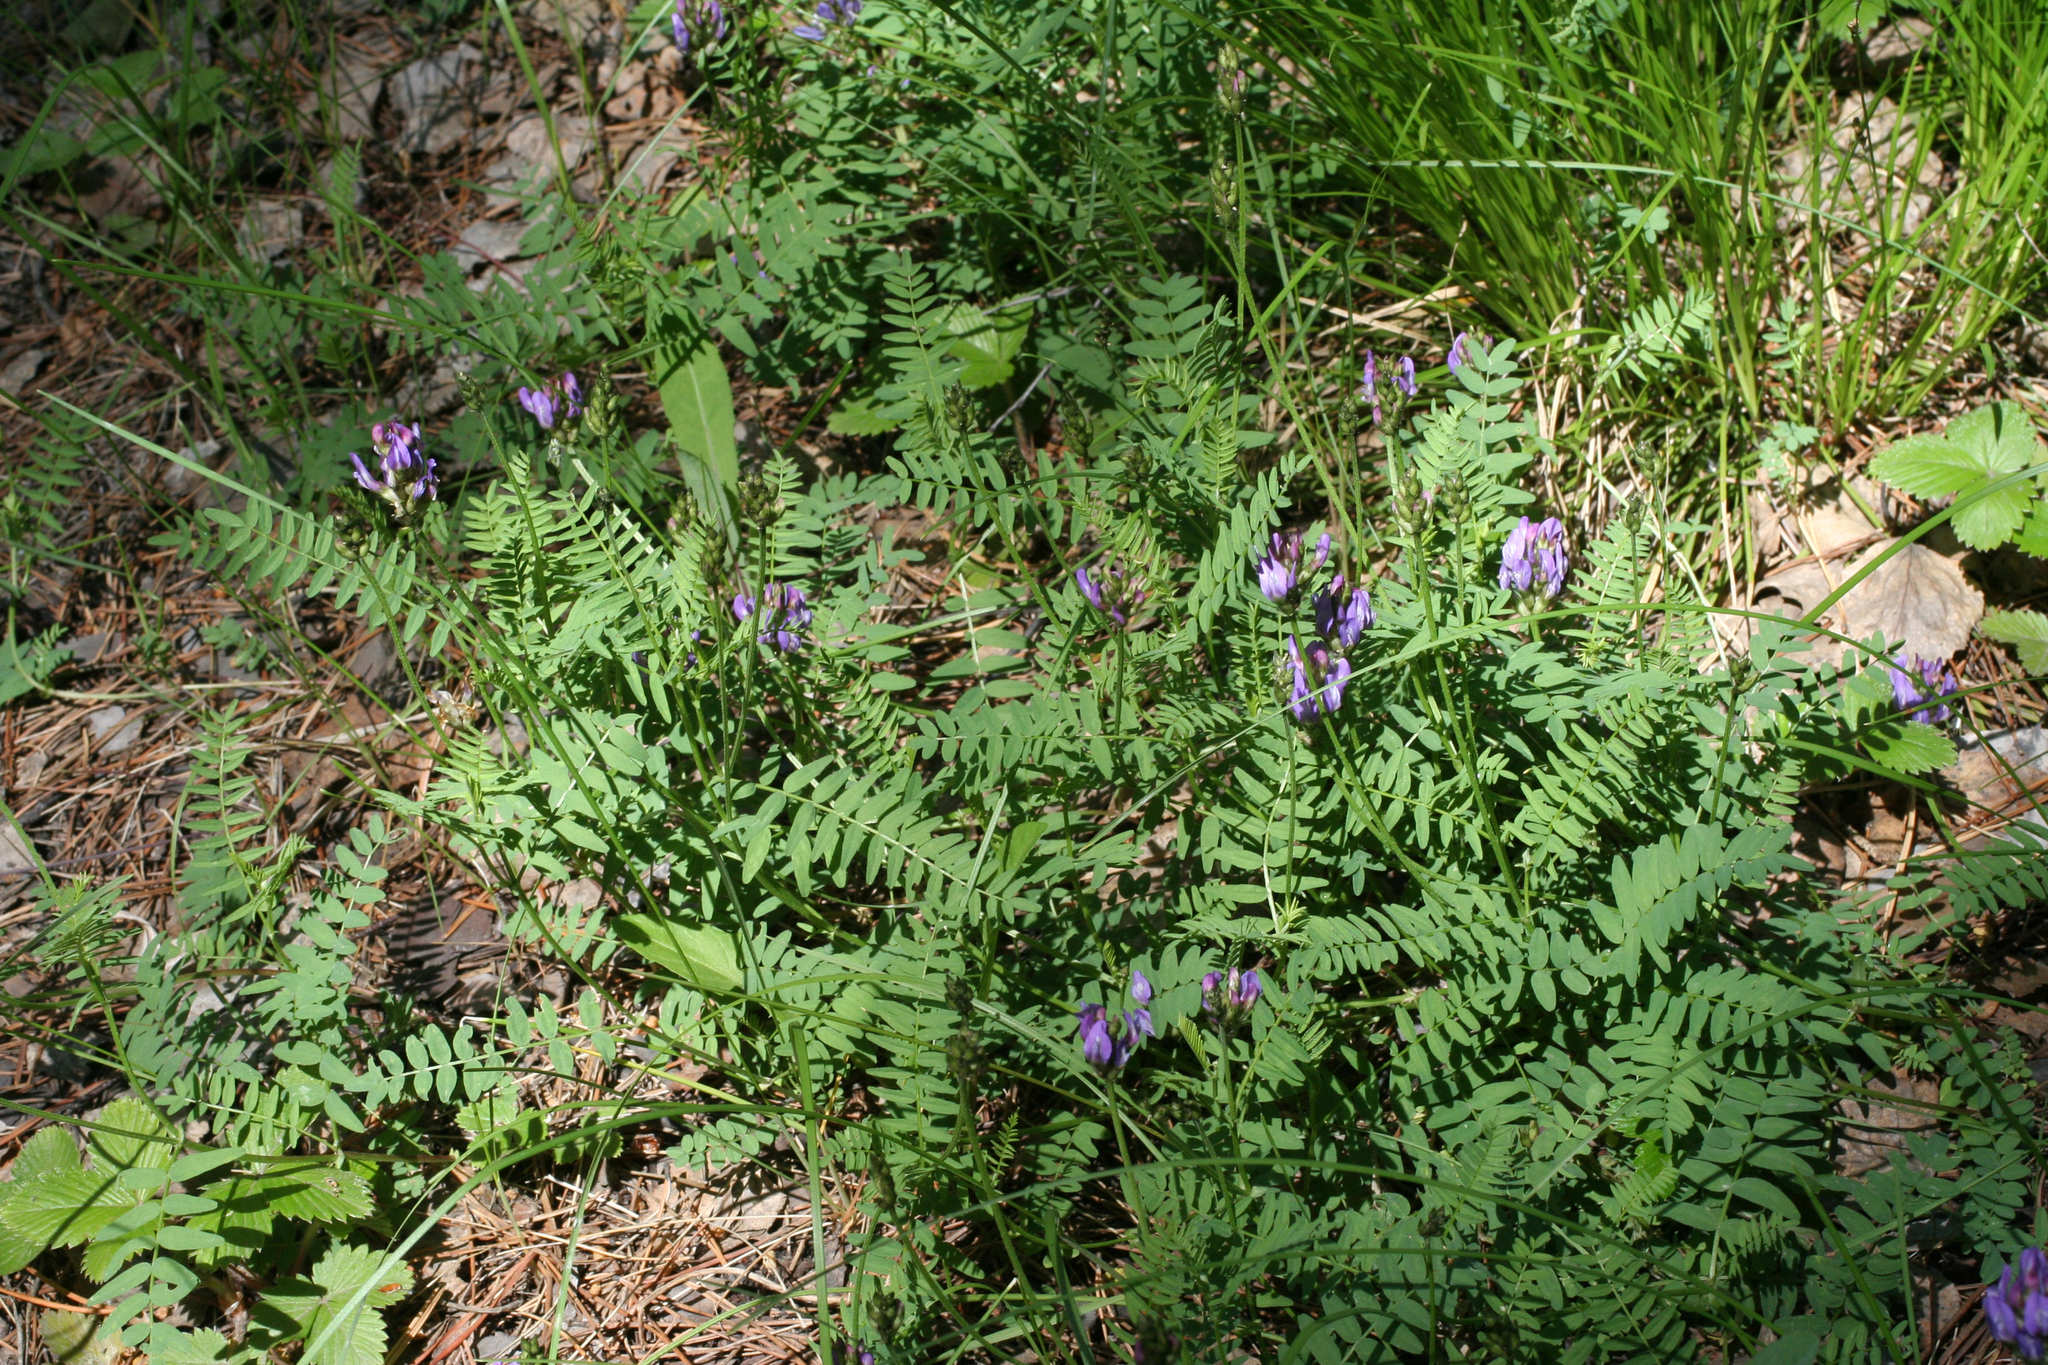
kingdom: Plantae
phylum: Tracheophyta
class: Magnoliopsida
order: Fabales
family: Fabaceae
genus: Astragalus
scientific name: Astragalus danicus
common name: Purple milk-vetch
